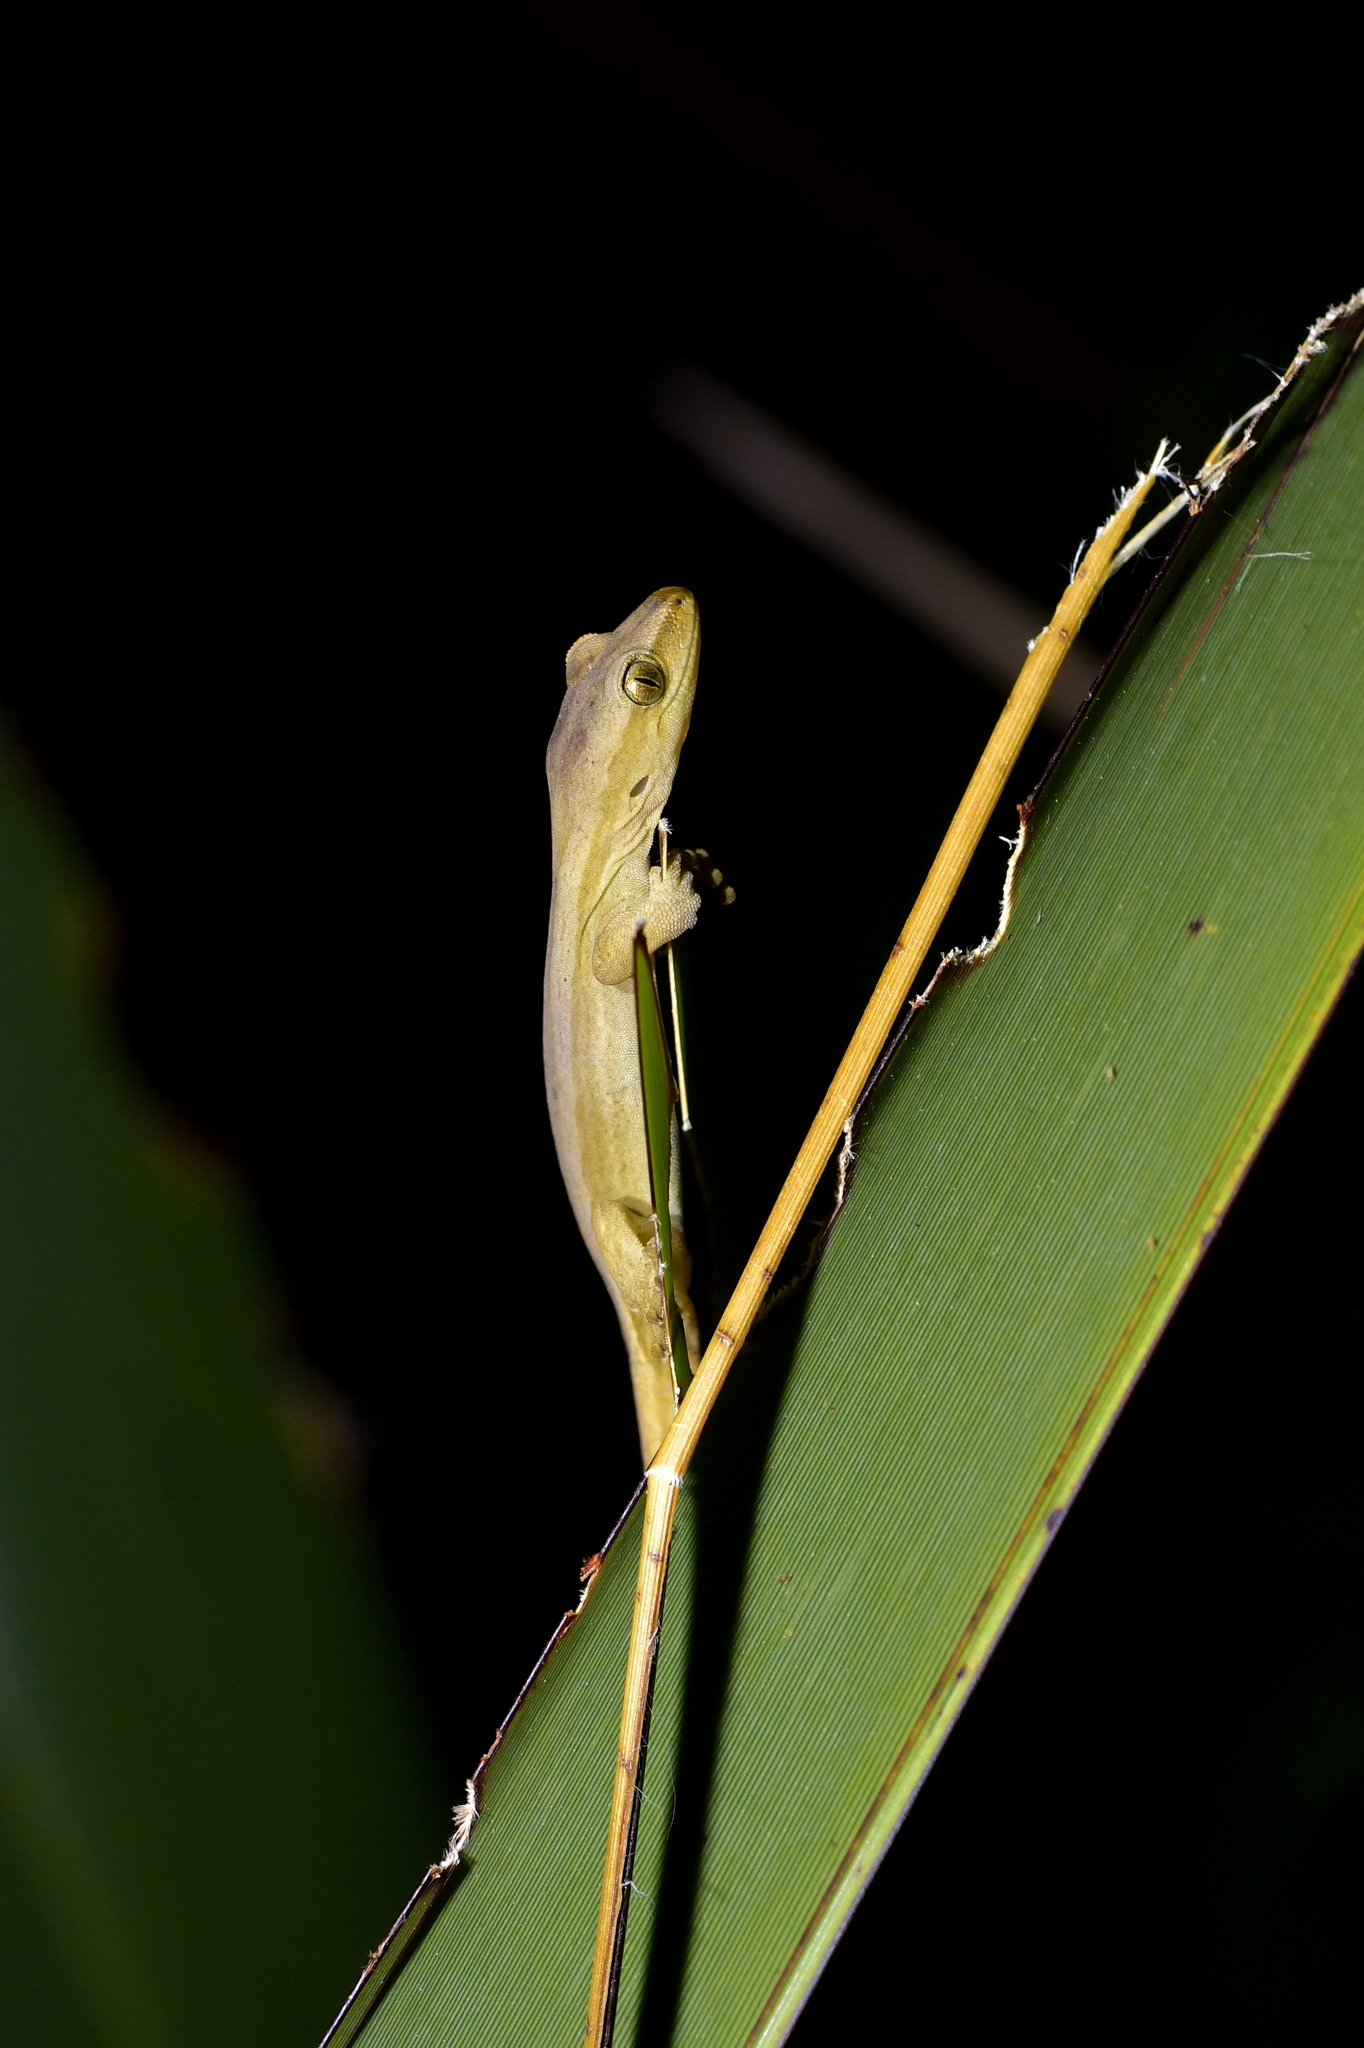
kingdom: Animalia
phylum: Chordata
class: Squamata
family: Diplodactylidae
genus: Woodworthia
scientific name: Woodworthia chrysosiretica
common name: Gold-striped gecko
